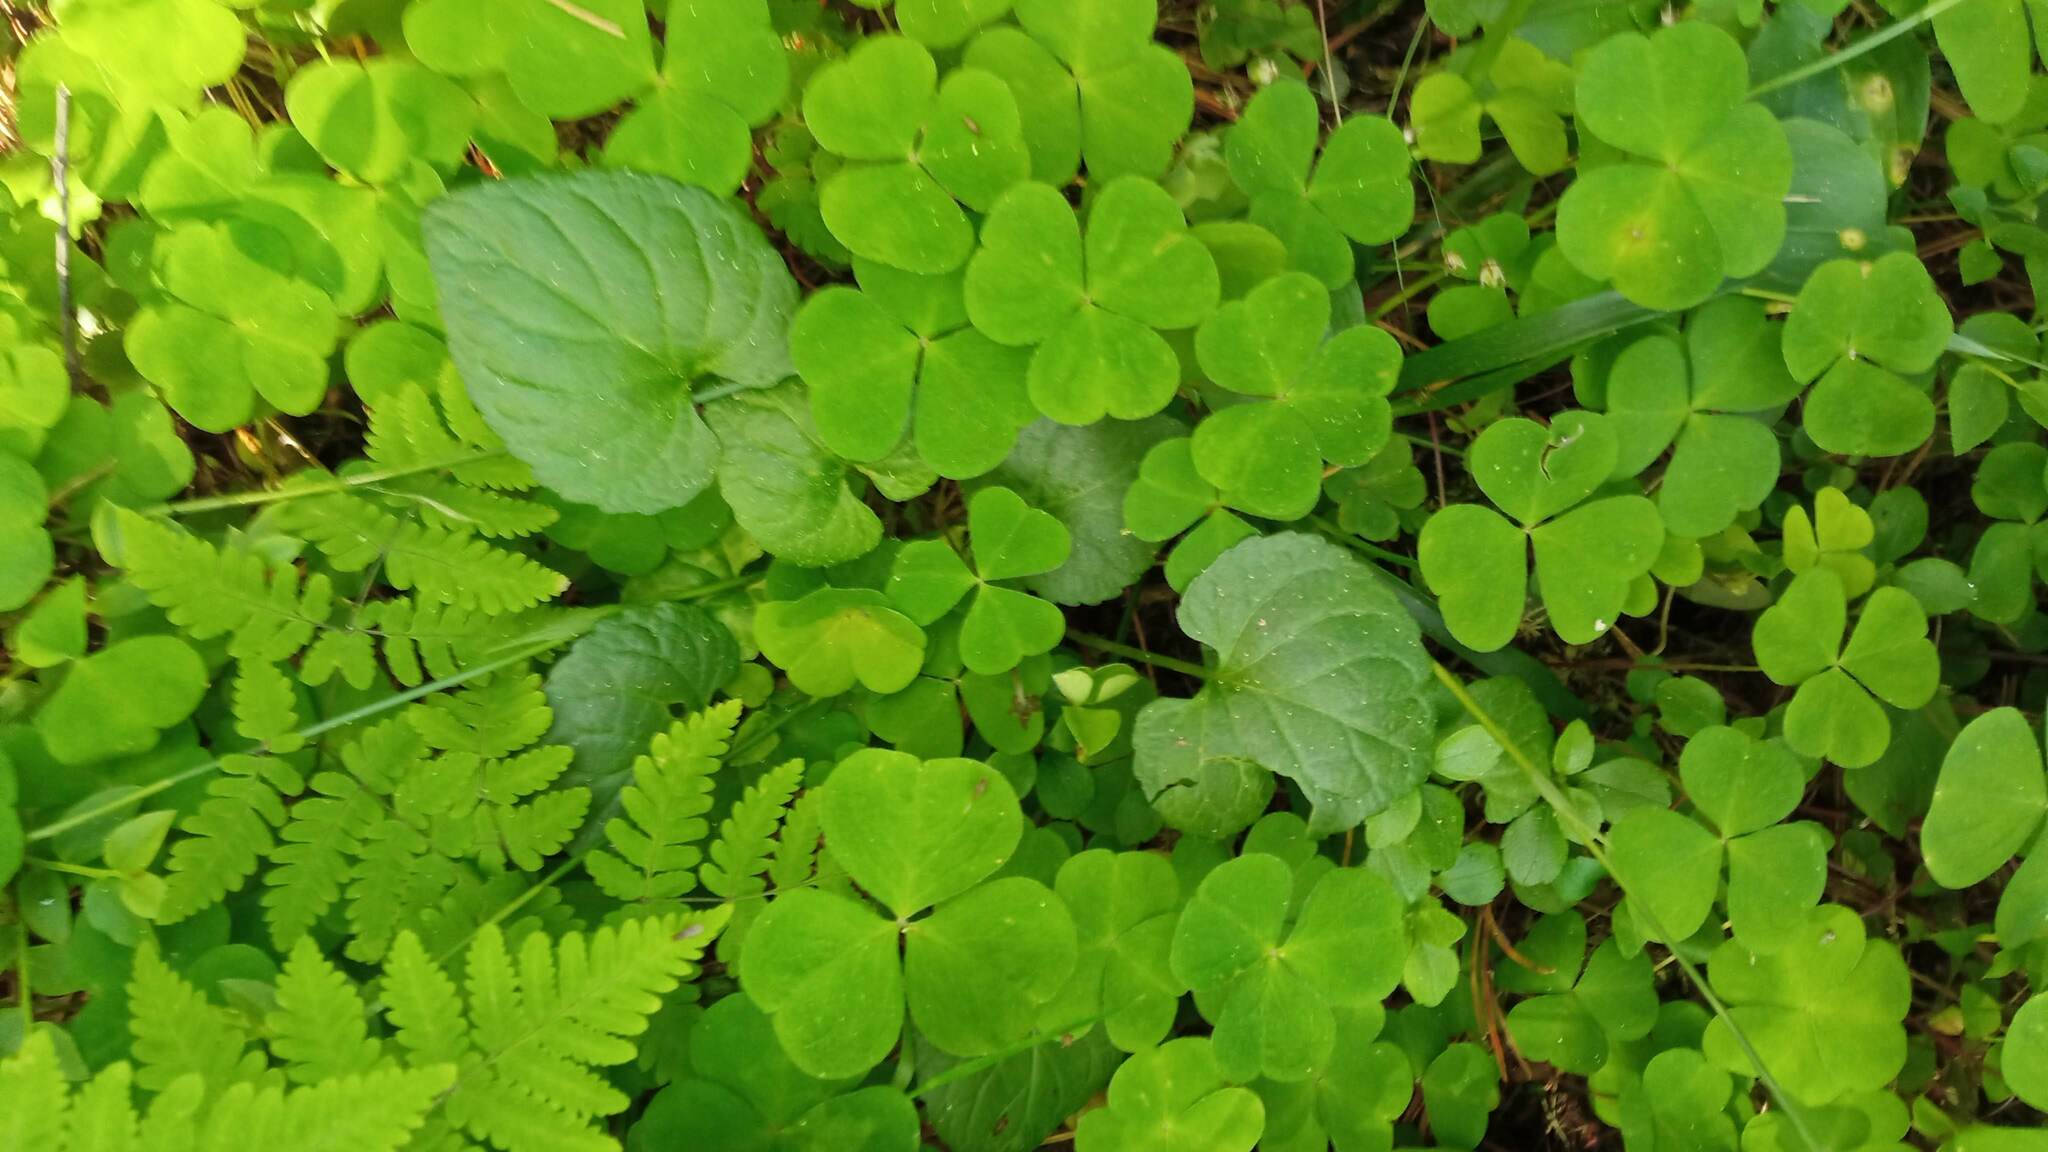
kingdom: Plantae
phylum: Tracheophyta
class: Magnoliopsida
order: Malpighiales
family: Violaceae
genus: Viola
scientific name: Viola selkirkii
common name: Selkirk's violet
